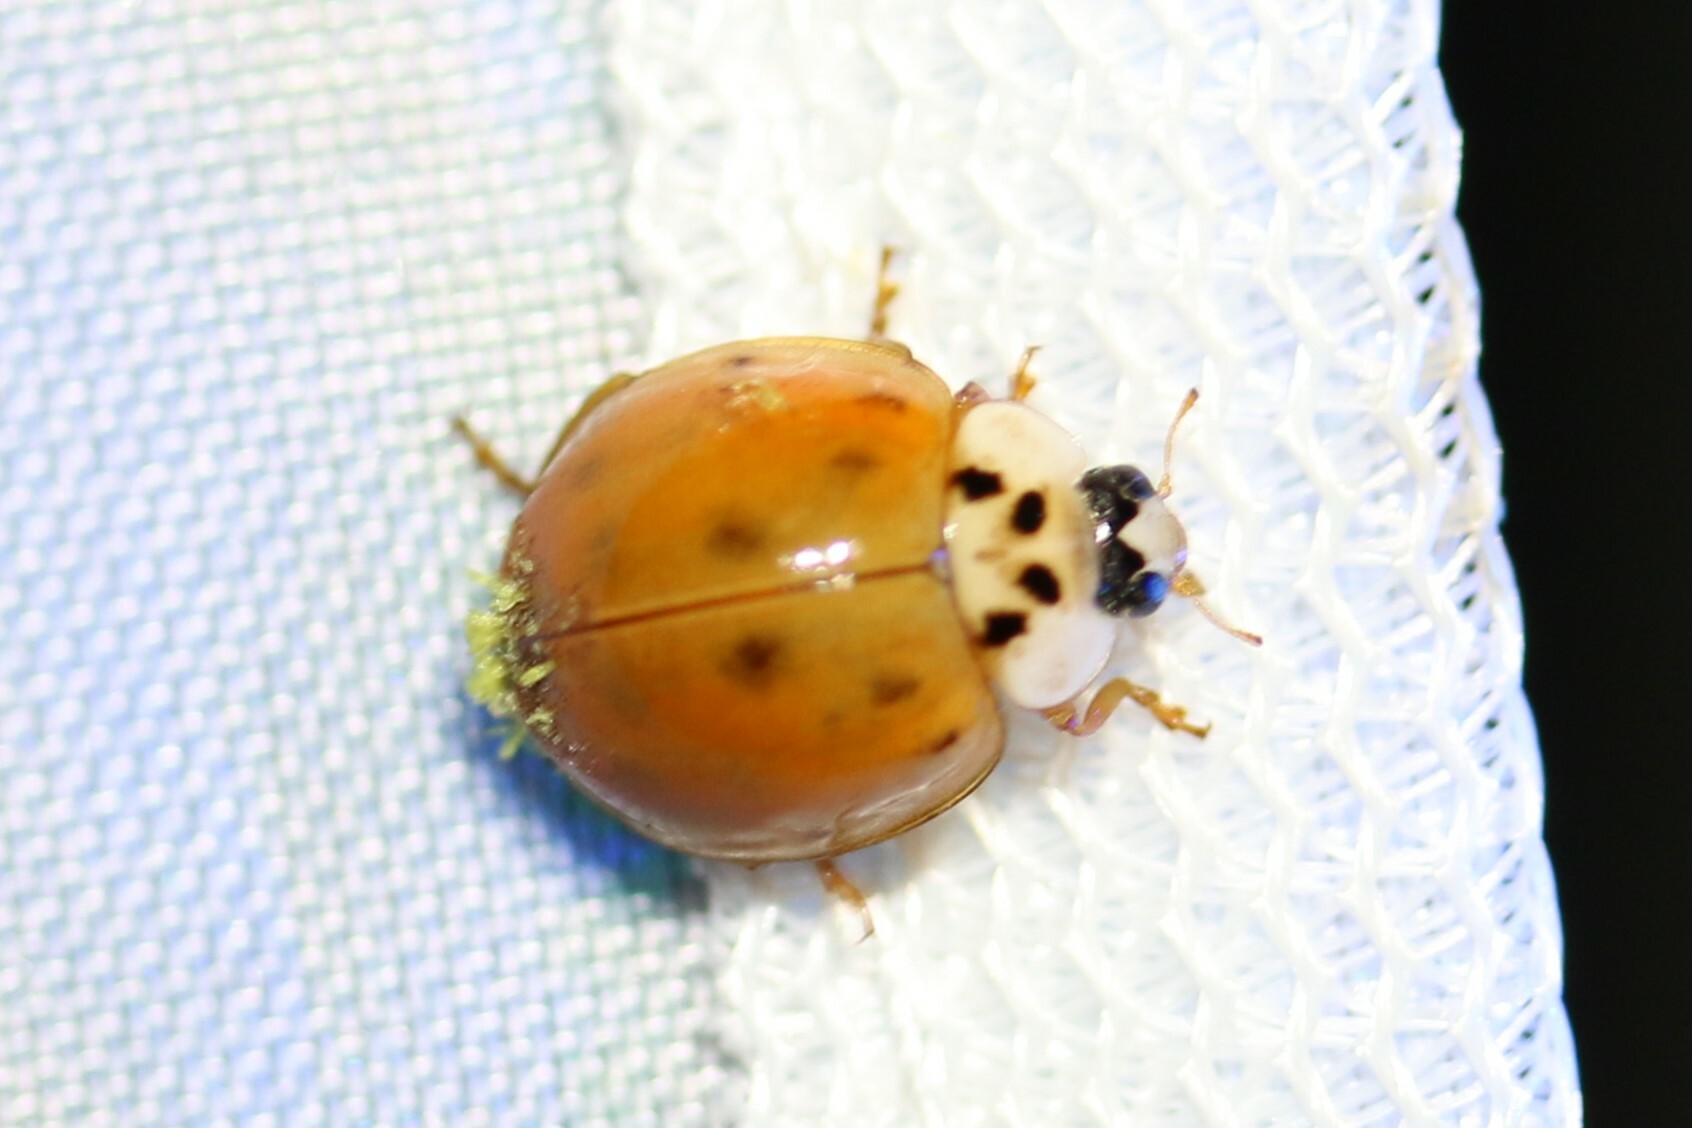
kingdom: Animalia
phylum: Arthropoda
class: Insecta
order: Coleoptera
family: Coccinellidae
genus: Harmonia
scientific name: Harmonia axyridis
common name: Harlequin ladybird
